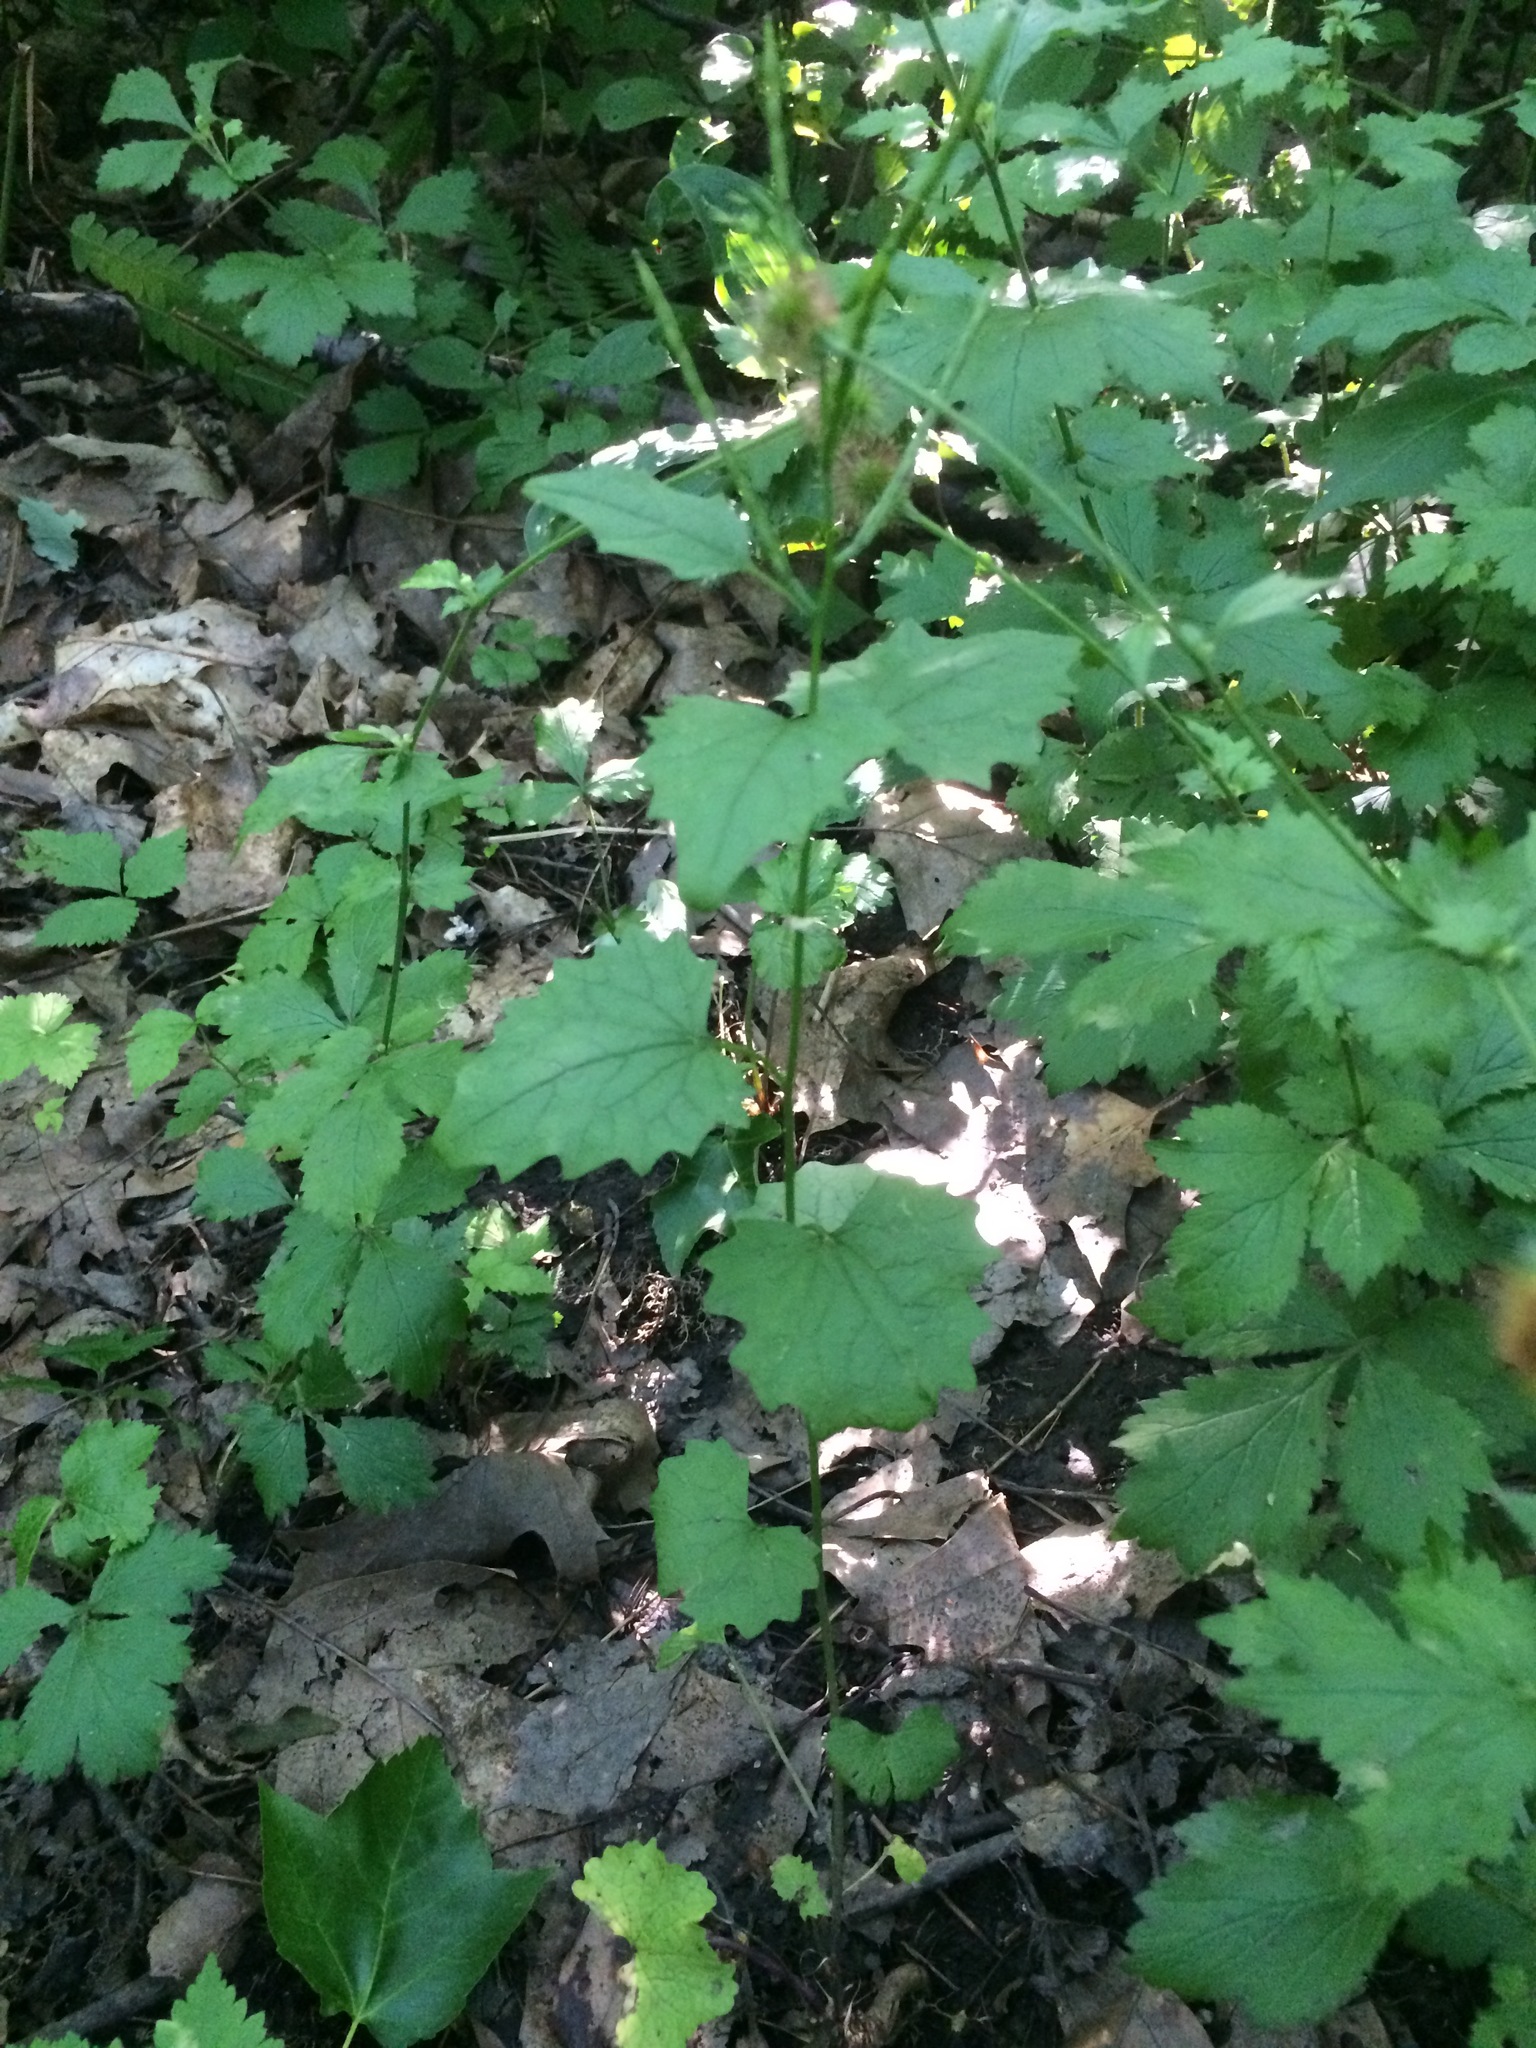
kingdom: Plantae
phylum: Tracheophyta
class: Magnoliopsida
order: Brassicales
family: Brassicaceae
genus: Alliaria
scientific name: Alliaria petiolata
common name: Garlic mustard
